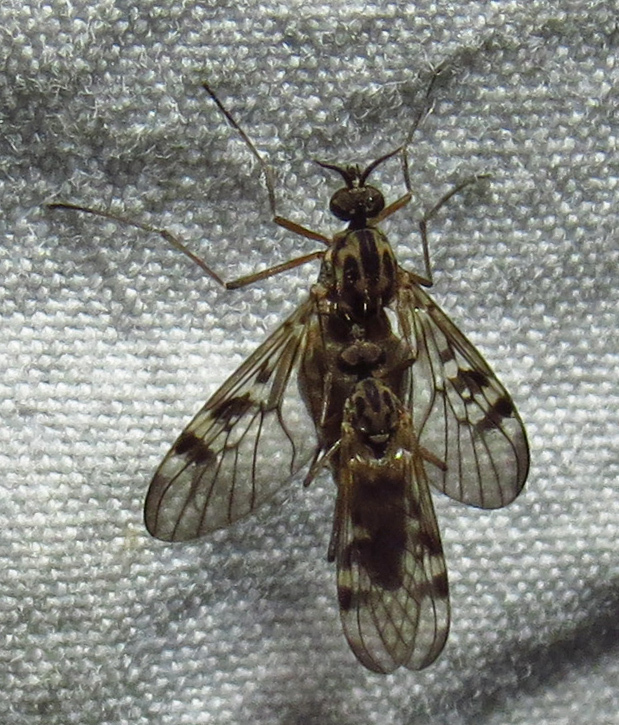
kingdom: Animalia
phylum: Arthropoda
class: Insecta
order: Diptera
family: Anisopodidae
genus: Sylvicola
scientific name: Sylvicola notialis
